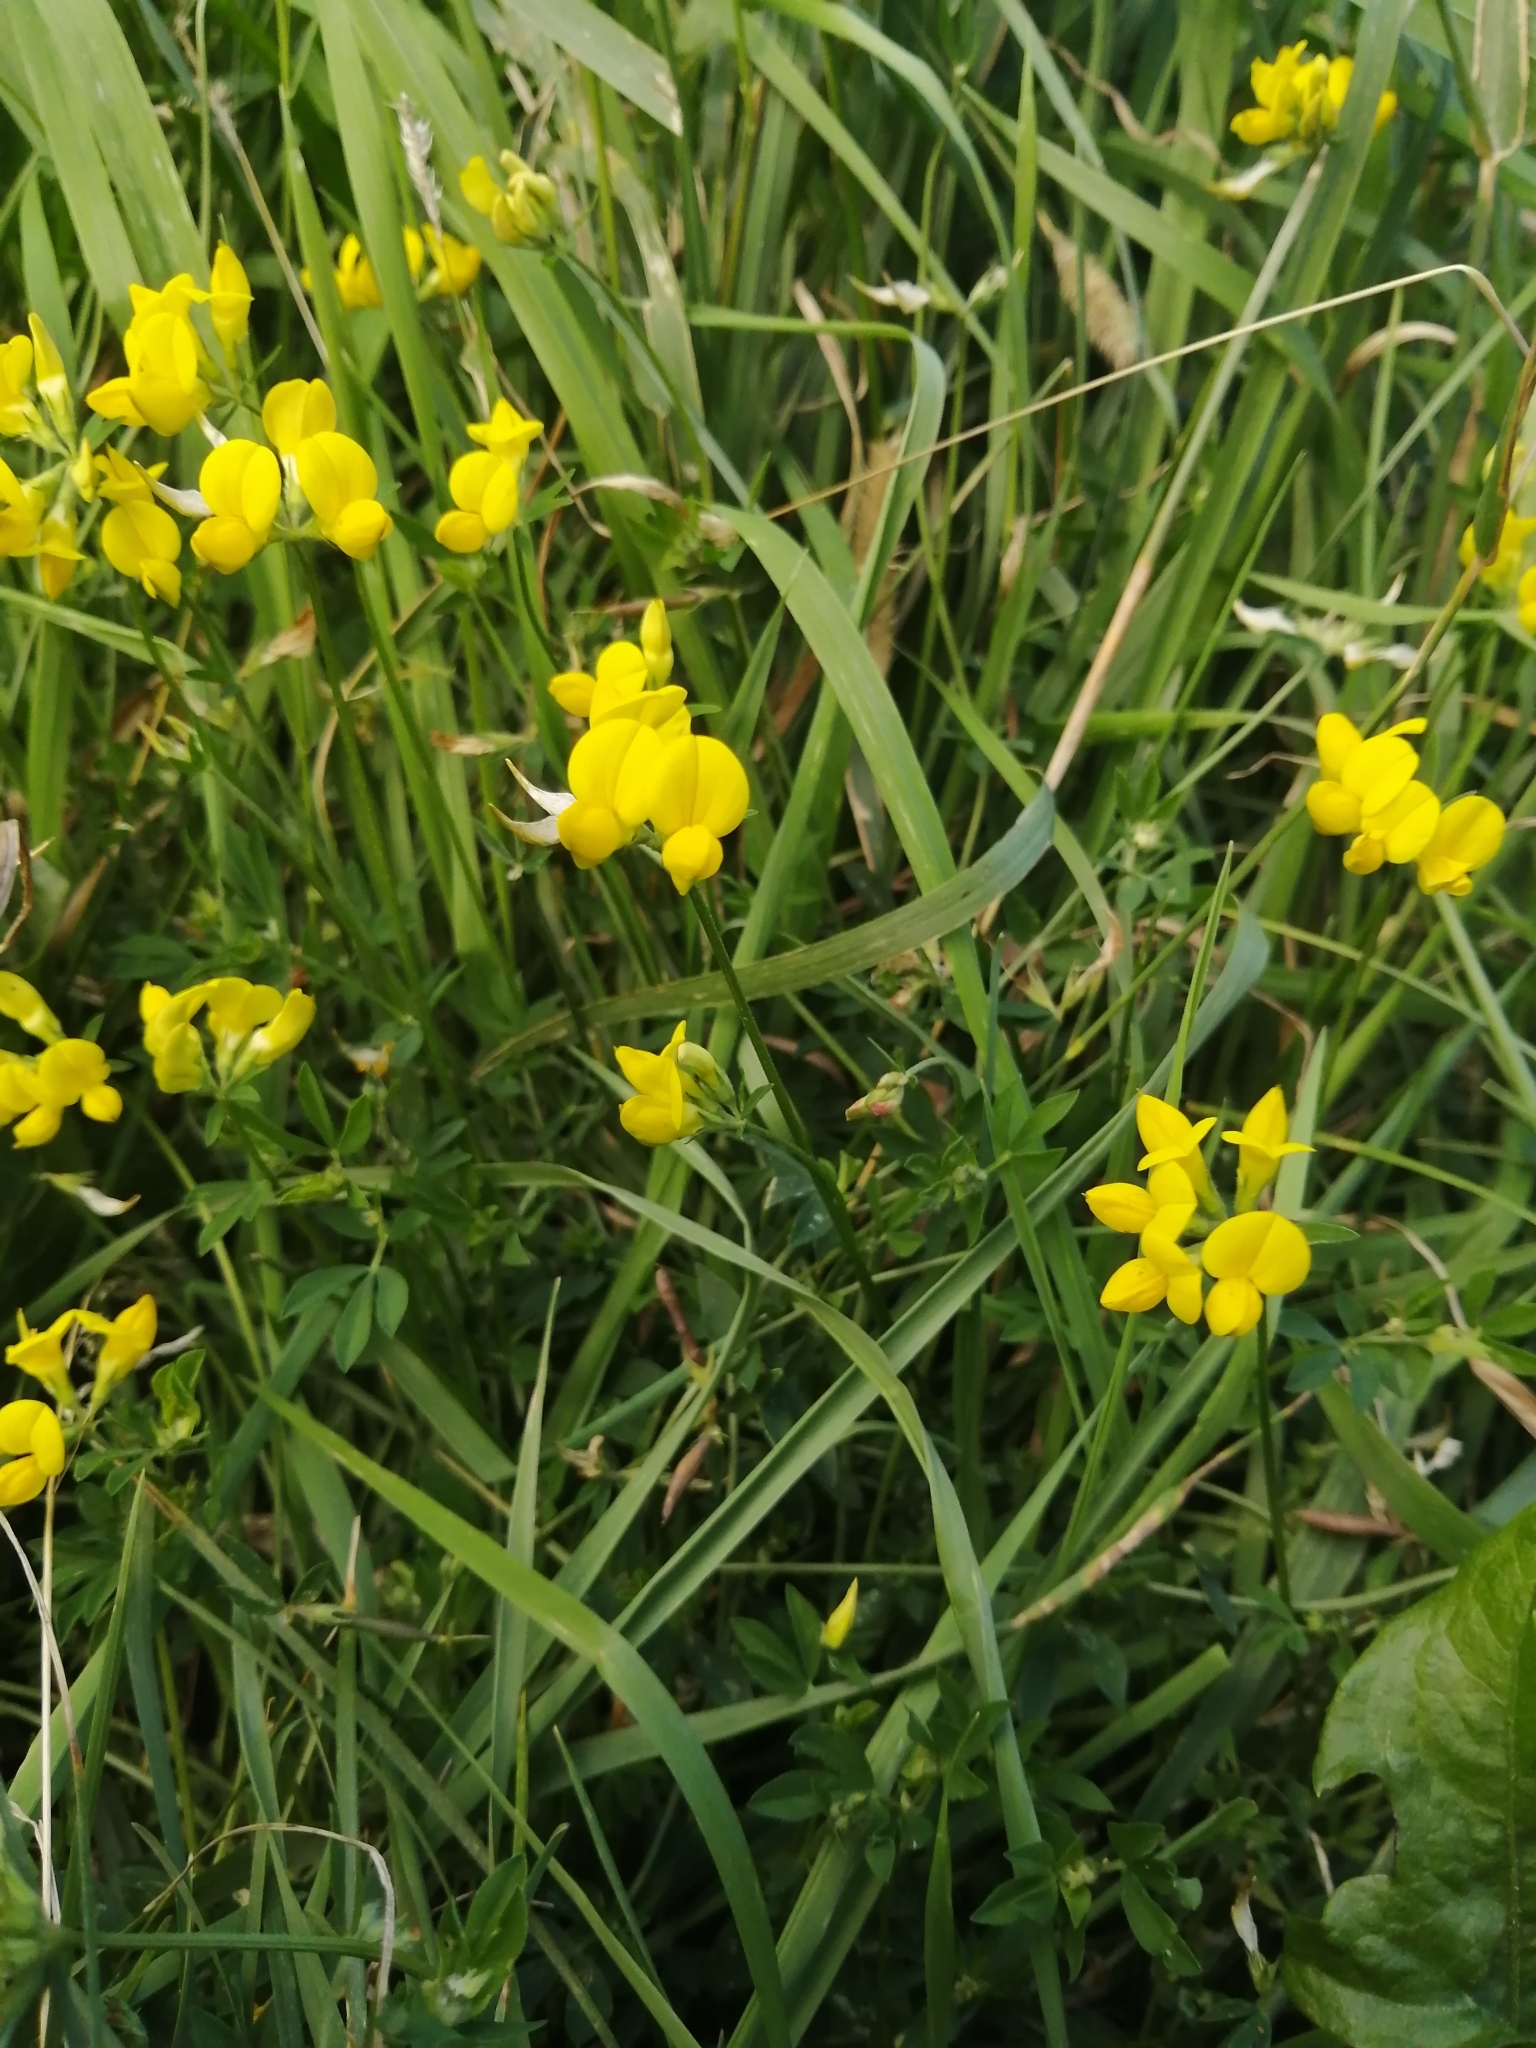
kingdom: Plantae
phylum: Tracheophyta
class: Magnoliopsida
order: Fabales
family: Fabaceae
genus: Lotus
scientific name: Lotus corniculatus
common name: Common bird's-foot-trefoil
